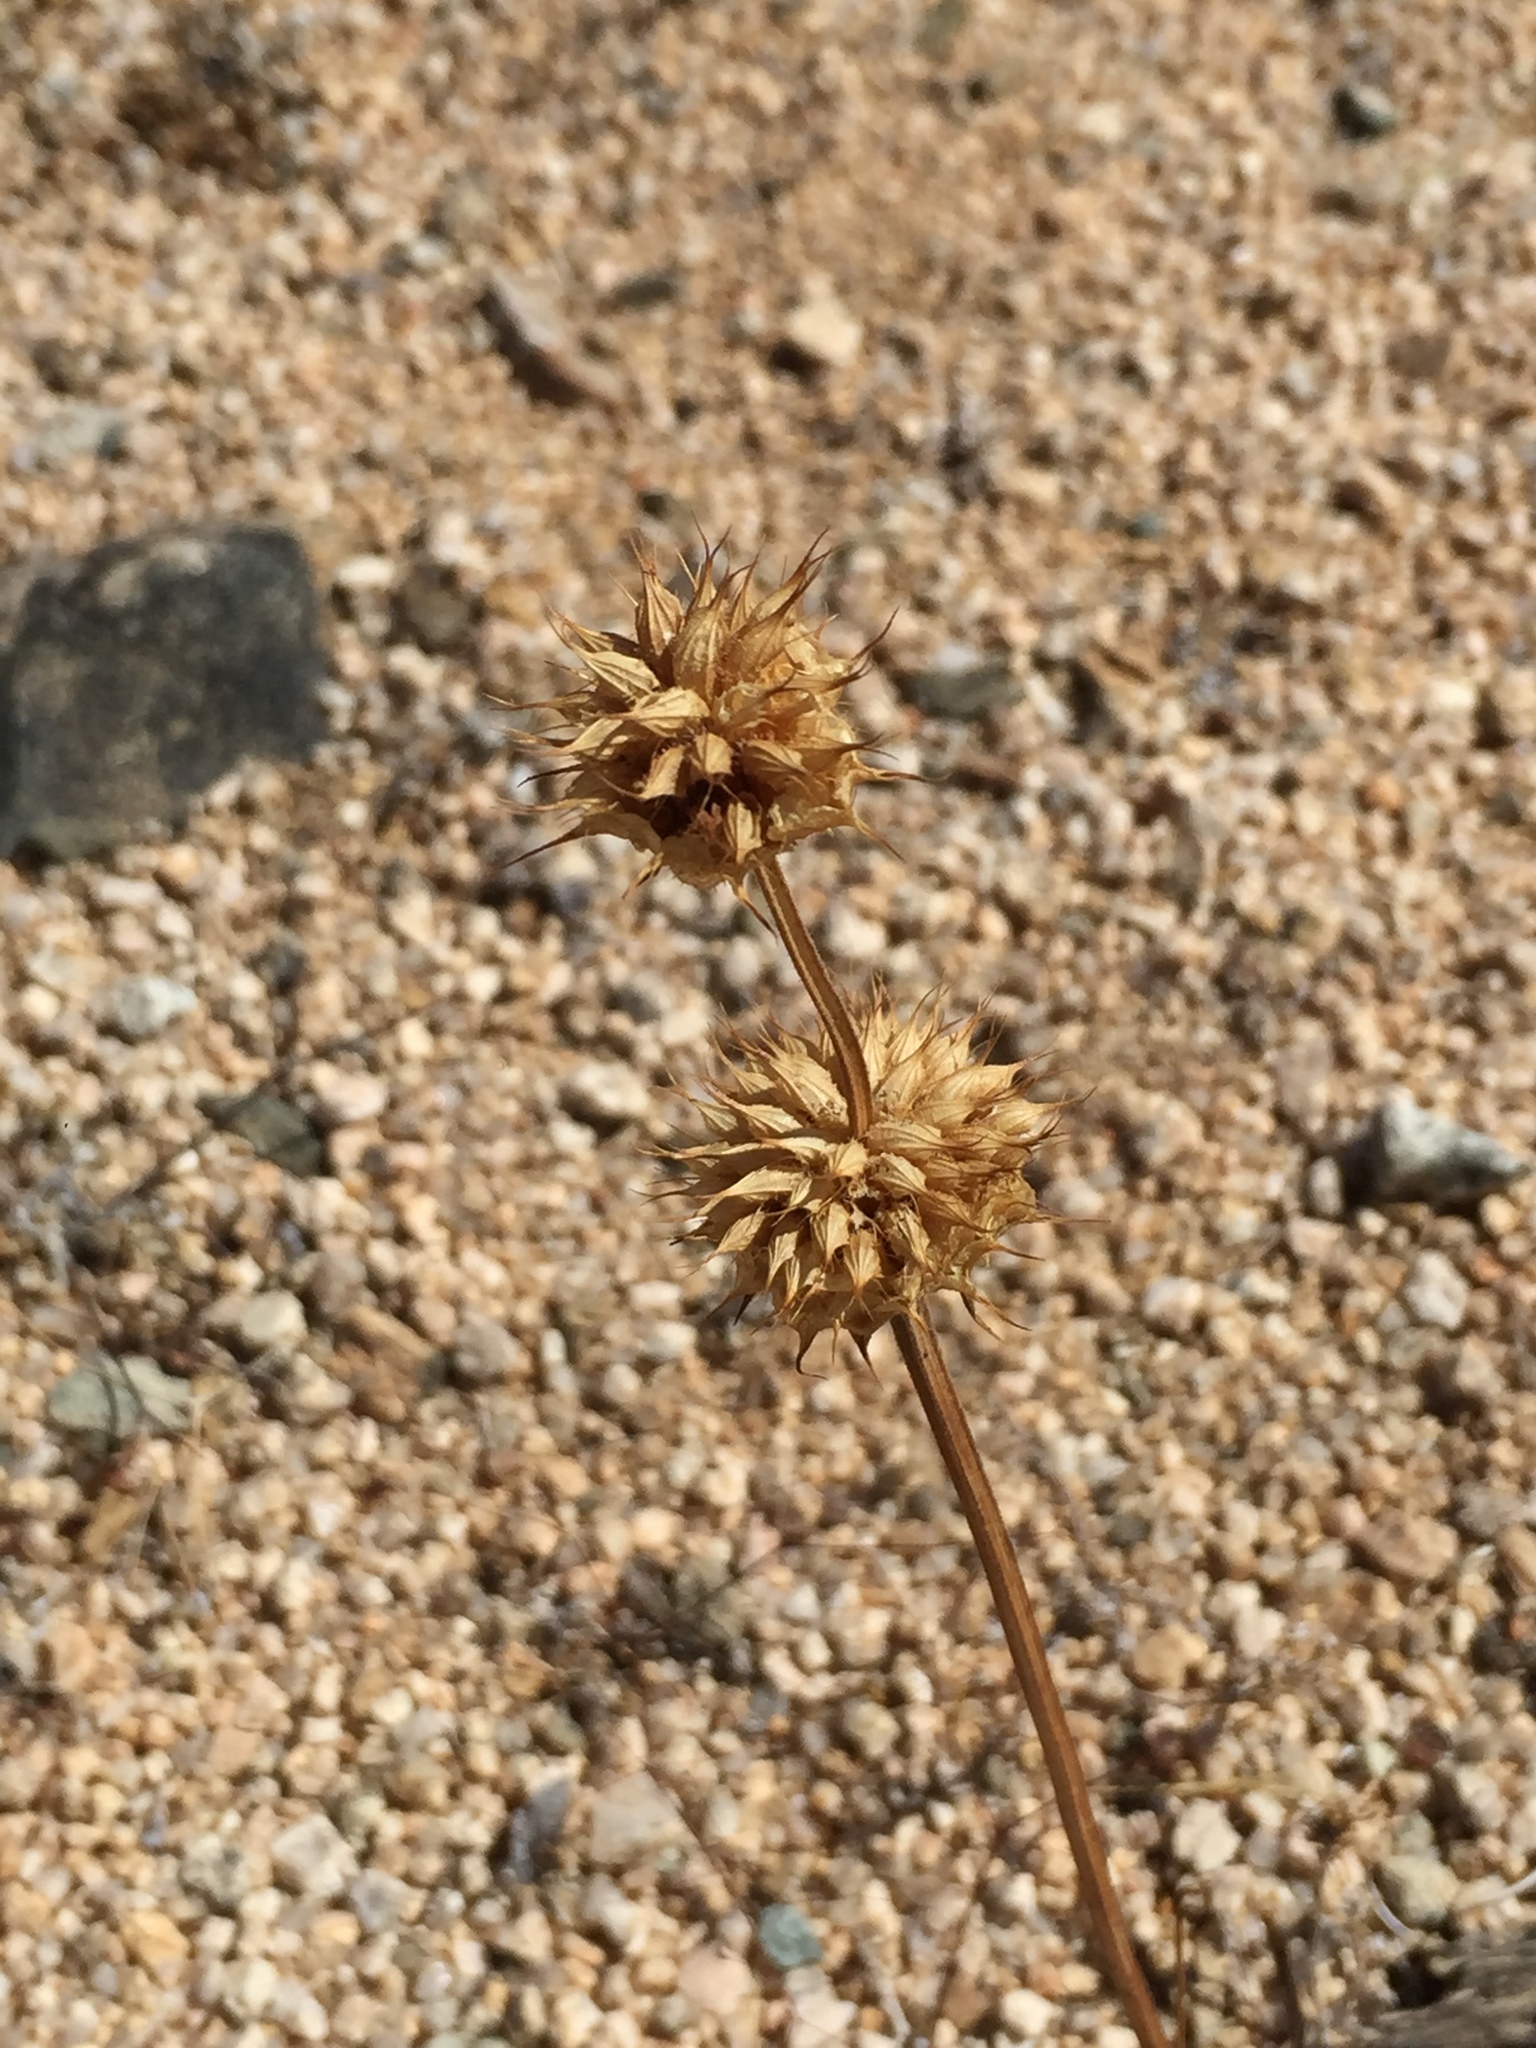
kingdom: Plantae
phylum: Tracheophyta
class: Magnoliopsida
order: Lamiales
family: Lamiaceae
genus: Salvia
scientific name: Salvia columbariae
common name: Chia
